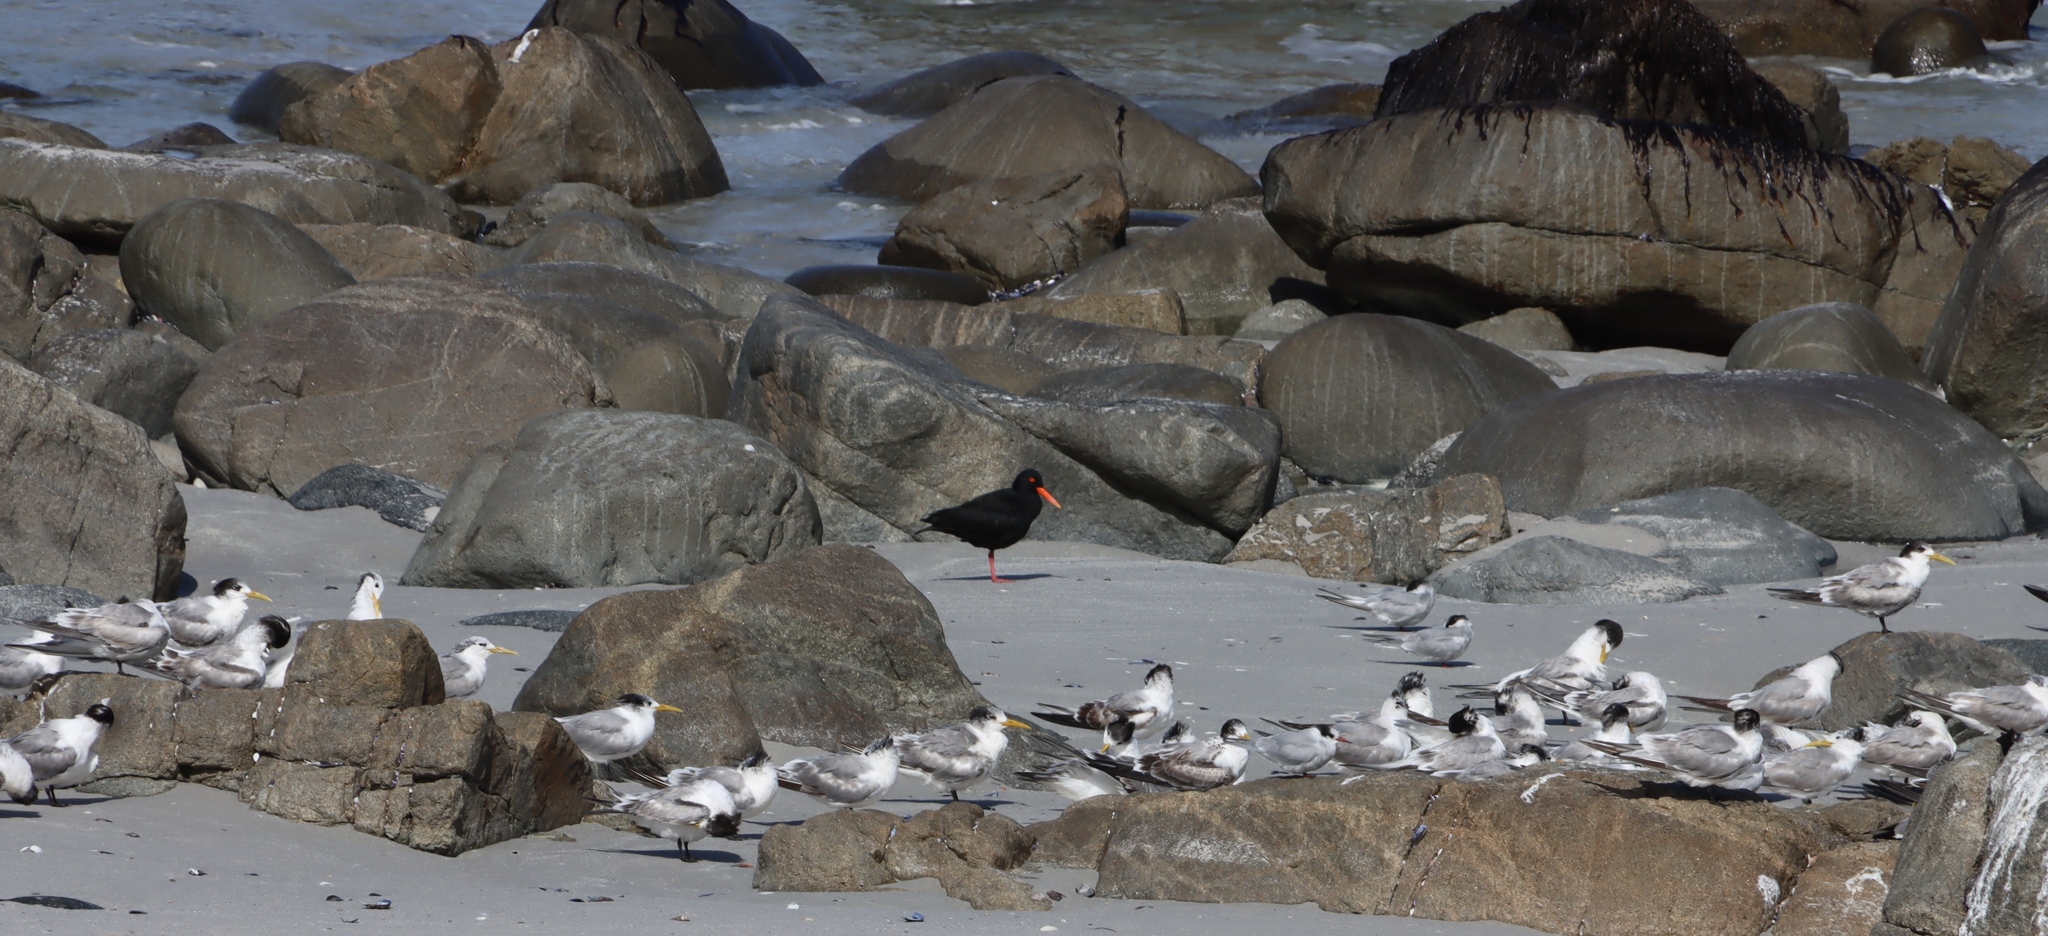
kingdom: Animalia
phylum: Chordata
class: Aves
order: Charadriiformes
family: Laridae
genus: Thalasseus
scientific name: Thalasseus bergii
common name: Greater crested tern
